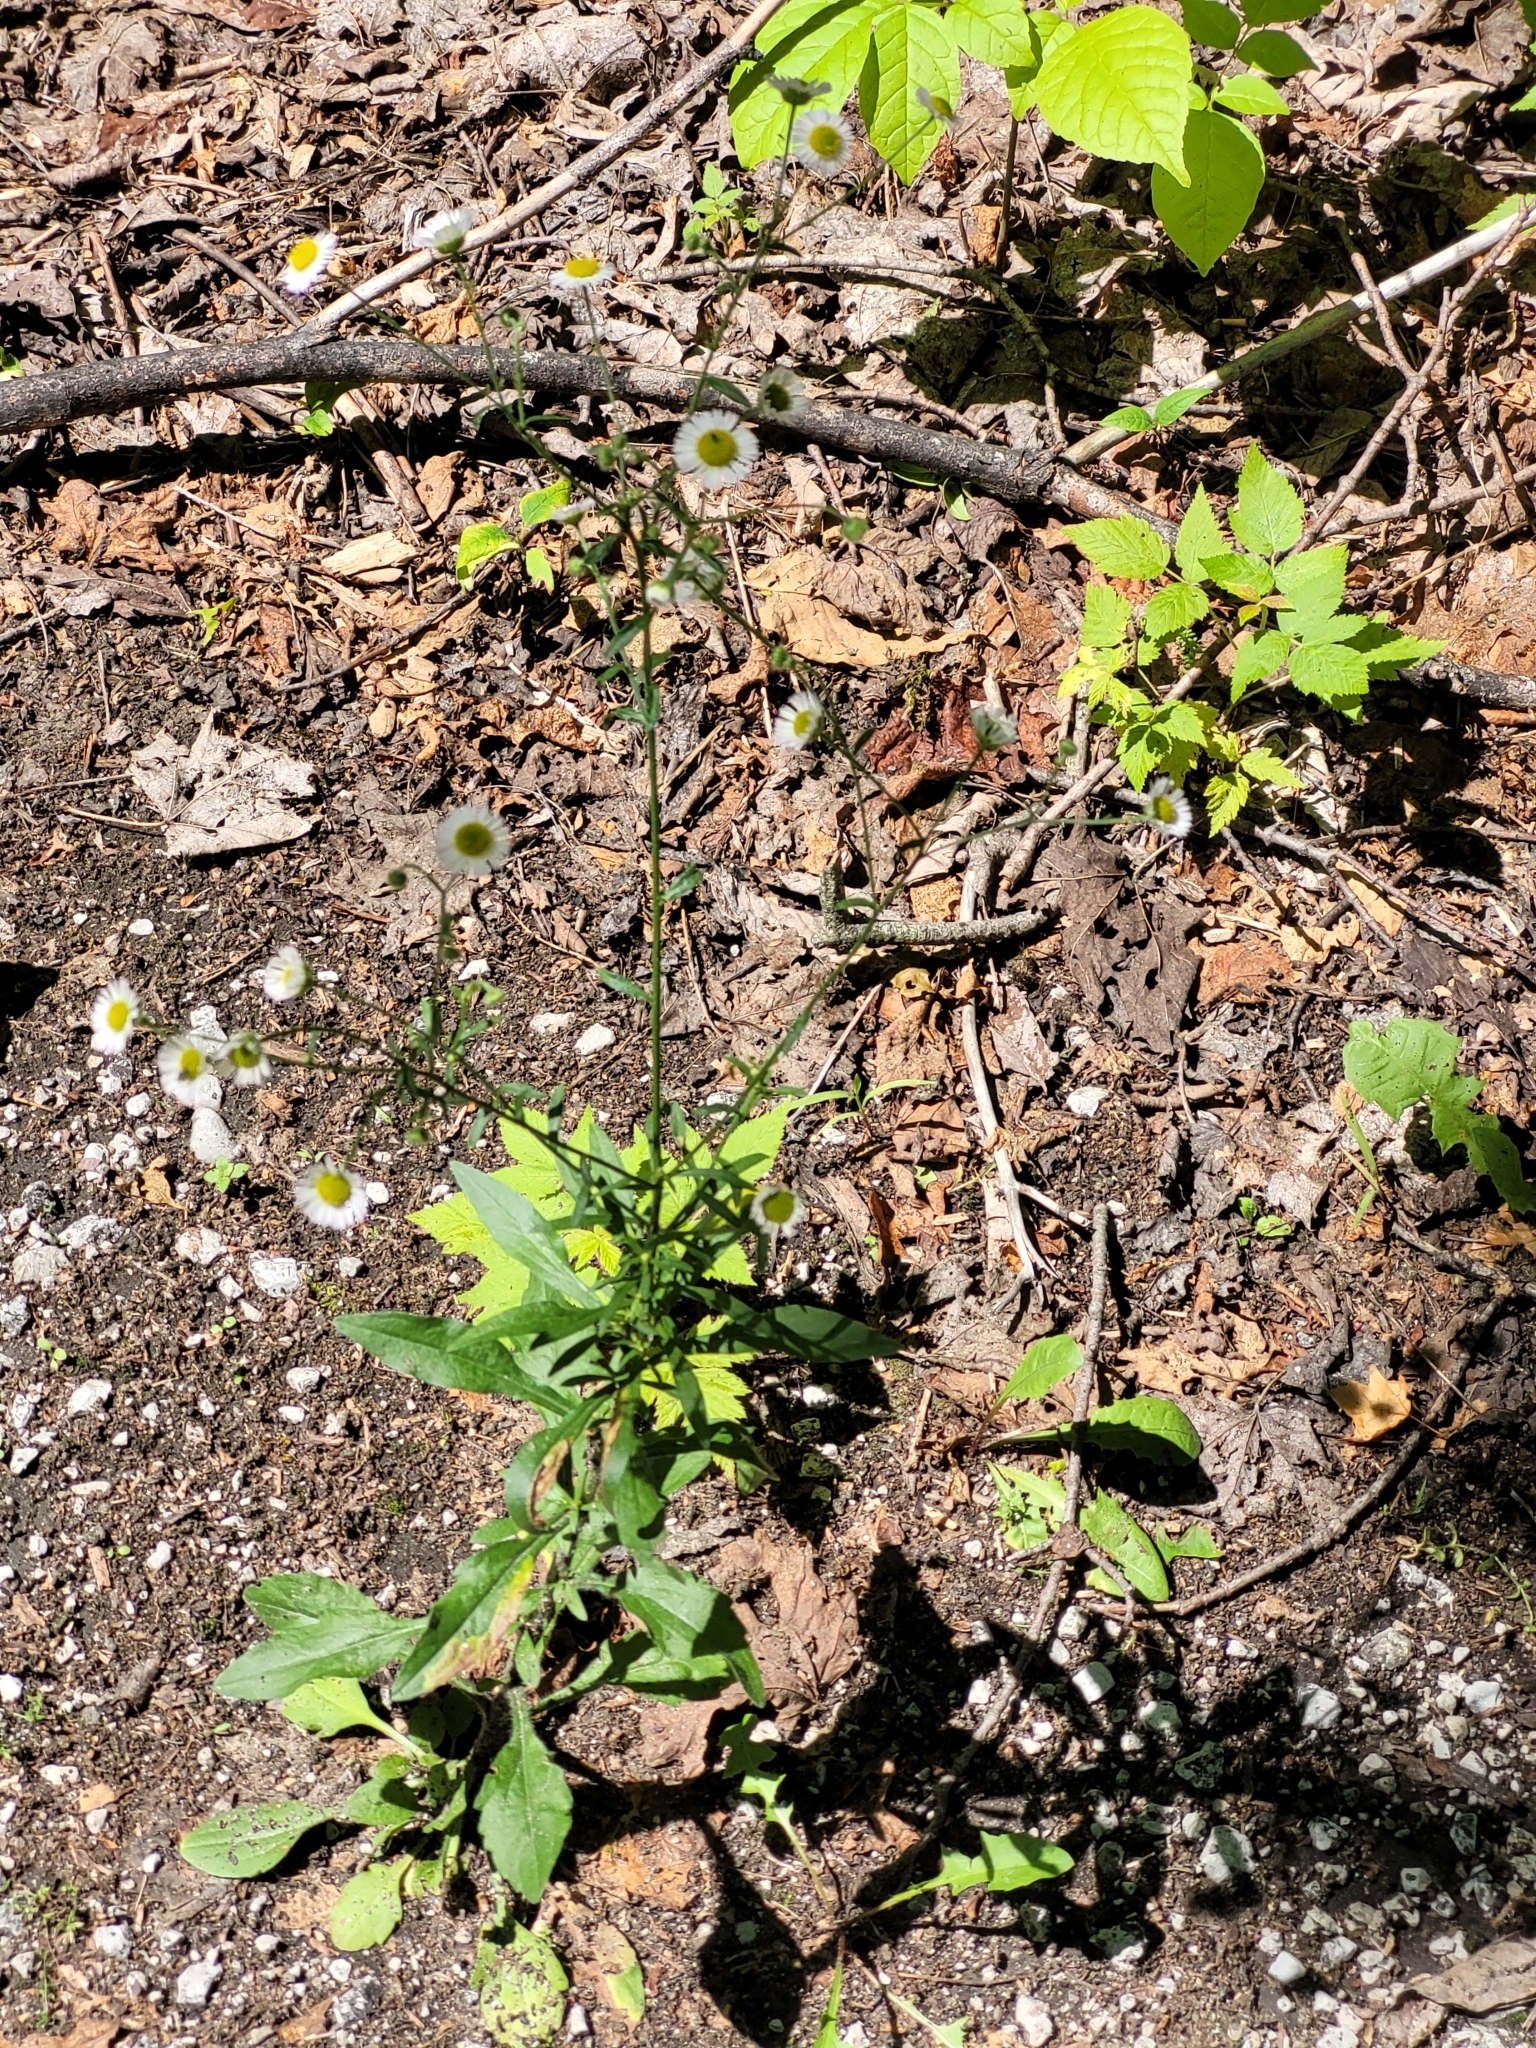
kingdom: Plantae
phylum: Tracheophyta
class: Magnoliopsida
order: Asterales
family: Asteraceae
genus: Erigeron
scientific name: Erigeron strigosus
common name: Common eastern fleabane
